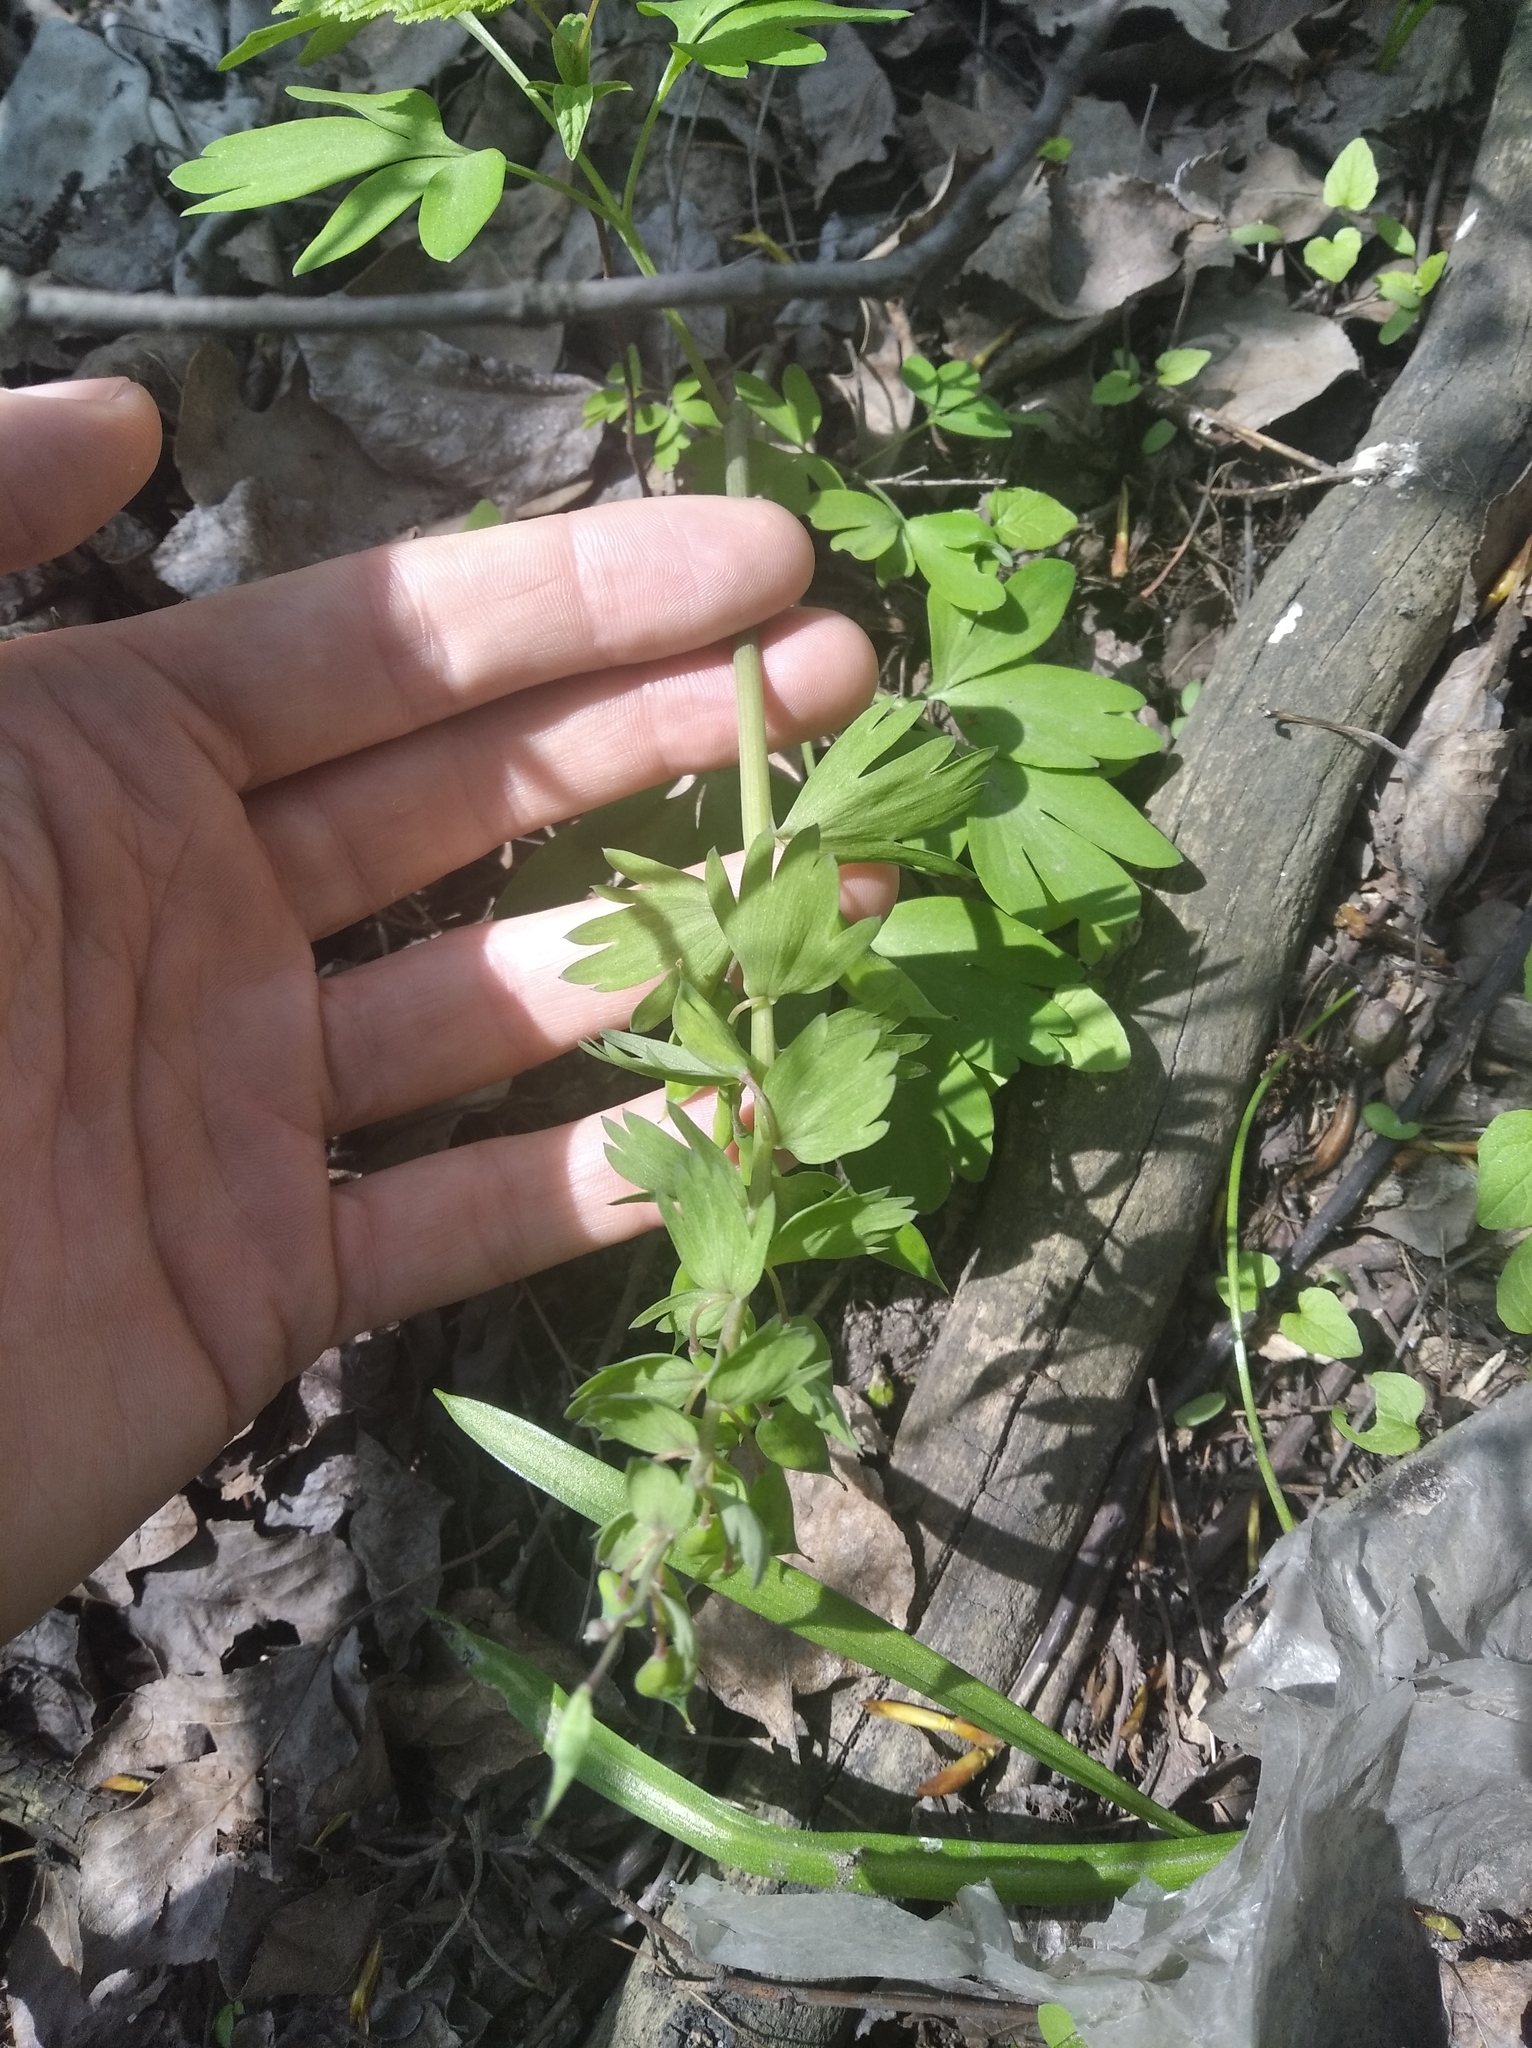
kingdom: Plantae
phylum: Tracheophyta
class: Magnoliopsida
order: Ranunculales
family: Papaveraceae
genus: Corydalis
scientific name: Corydalis solida
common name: Bird-in-a-bush
